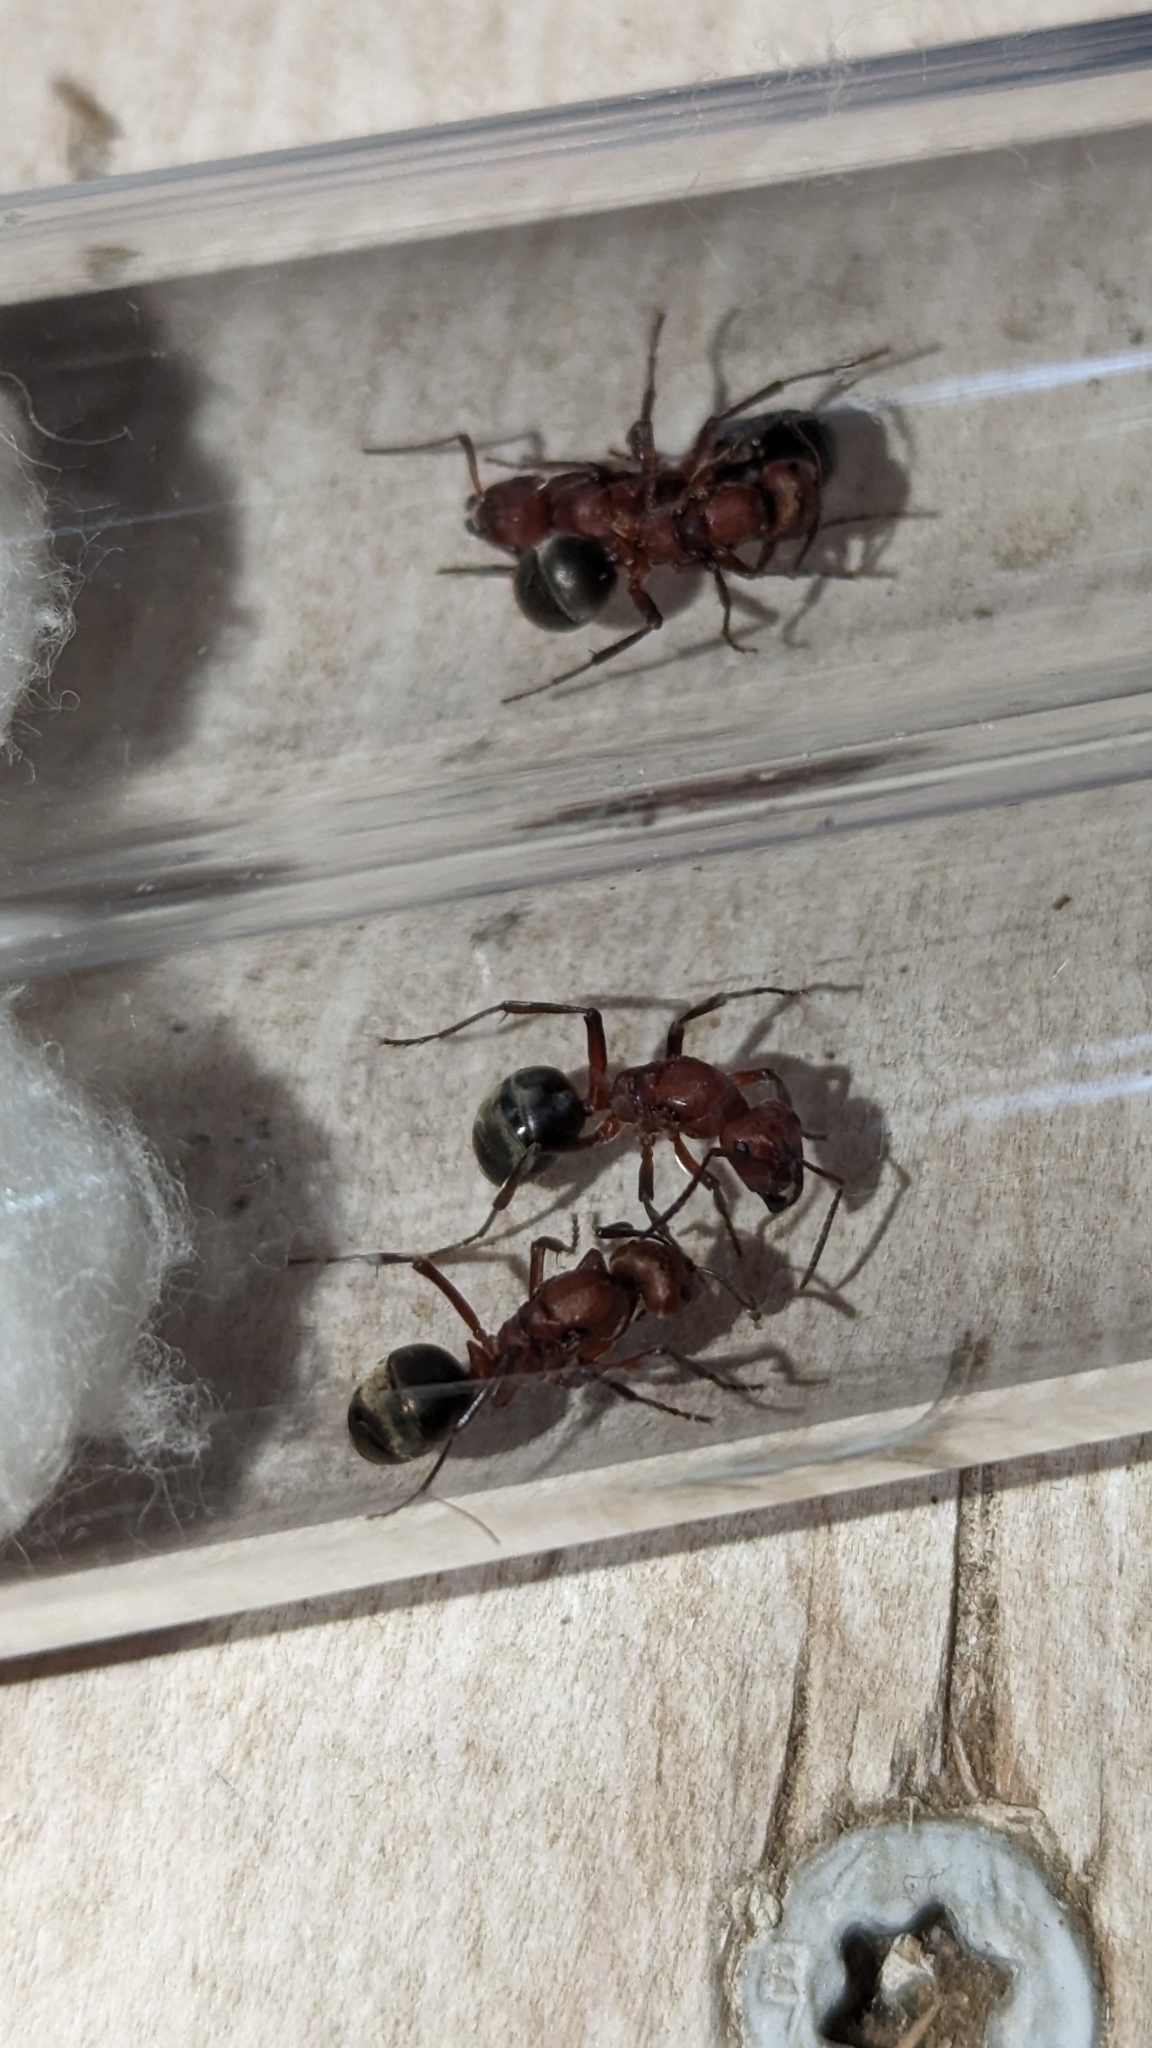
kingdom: Animalia
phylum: Arthropoda
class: Insecta
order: Hymenoptera
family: Formicidae
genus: Formica
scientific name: Formica subintegra
